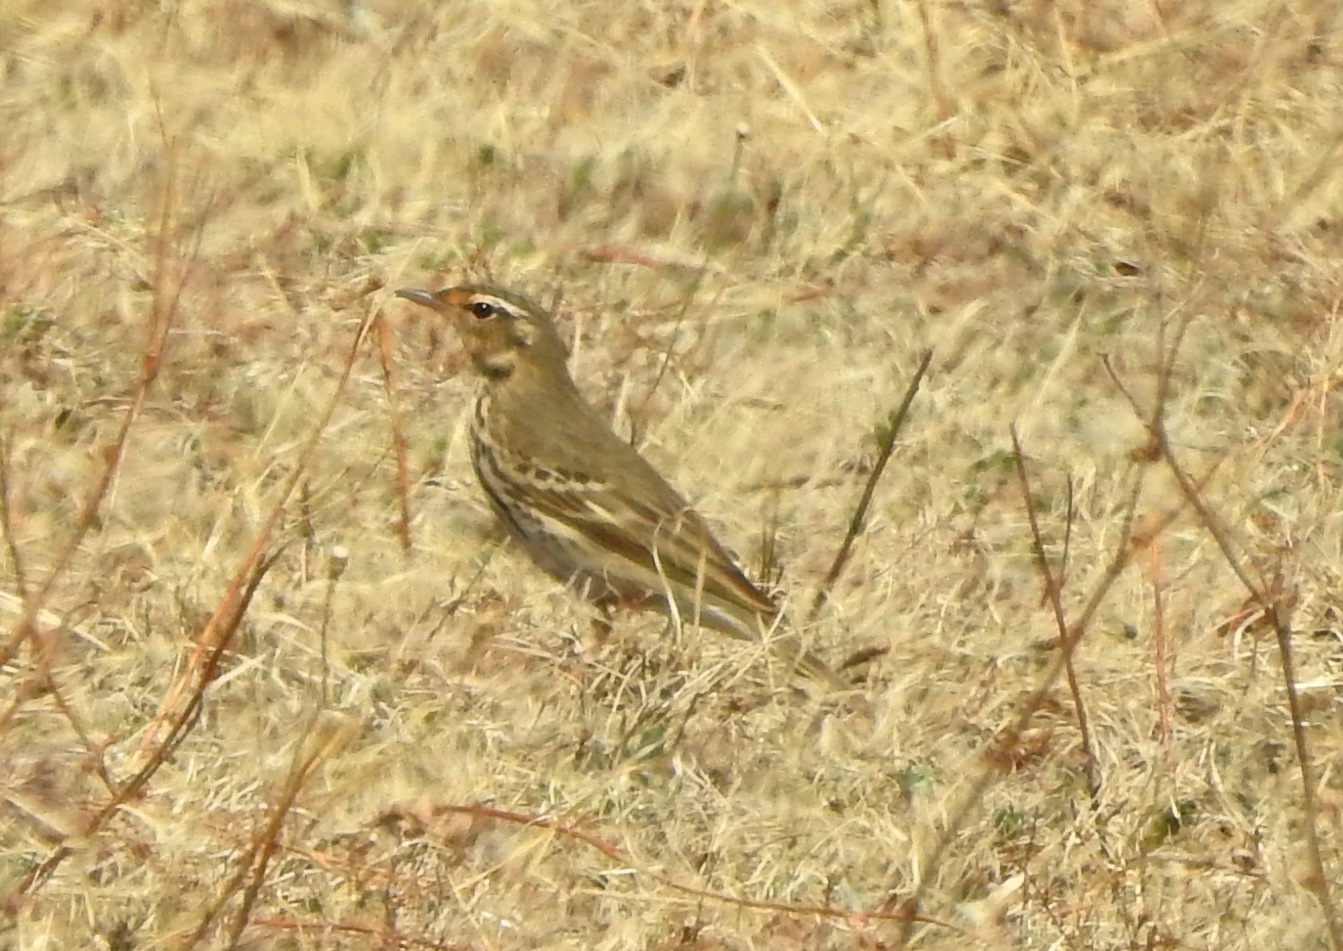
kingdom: Animalia
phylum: Chordata
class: Aves
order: Passeriformes
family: Motacillidae
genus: Anthus
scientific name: Anthus hodgsoni
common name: Olive-backed pipit
